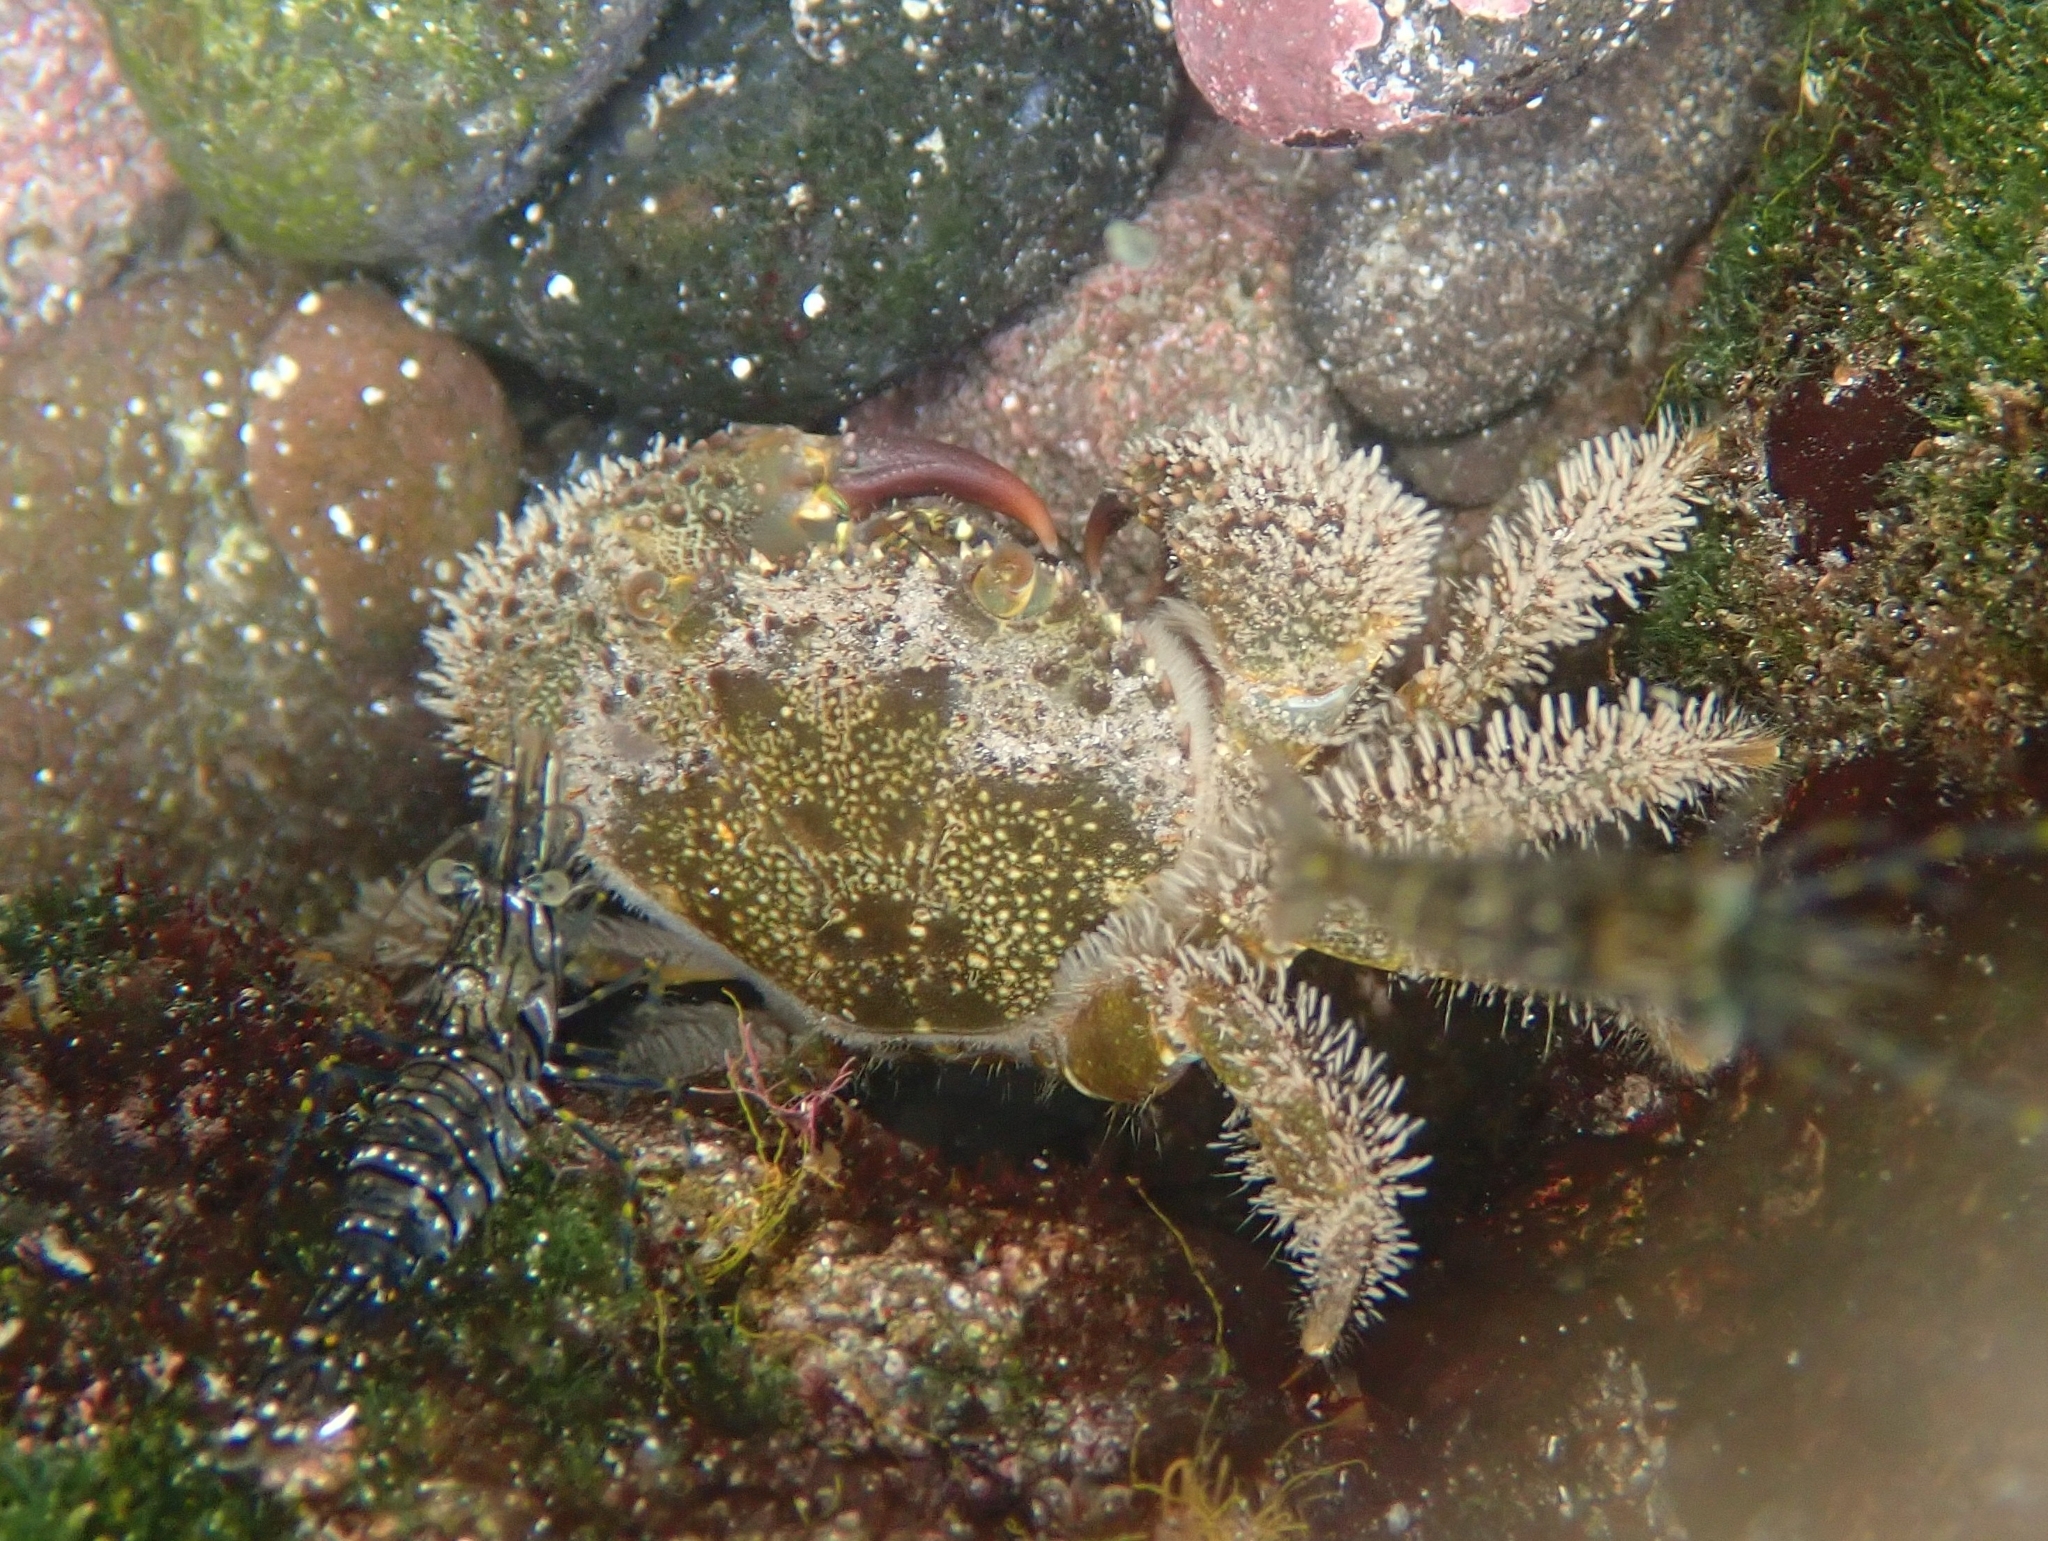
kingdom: Animalia
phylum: Arthropoda
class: Malacostraca
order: Decapoda
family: Eriphiidae
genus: Eriphia
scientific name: Eriphia verrucosa
